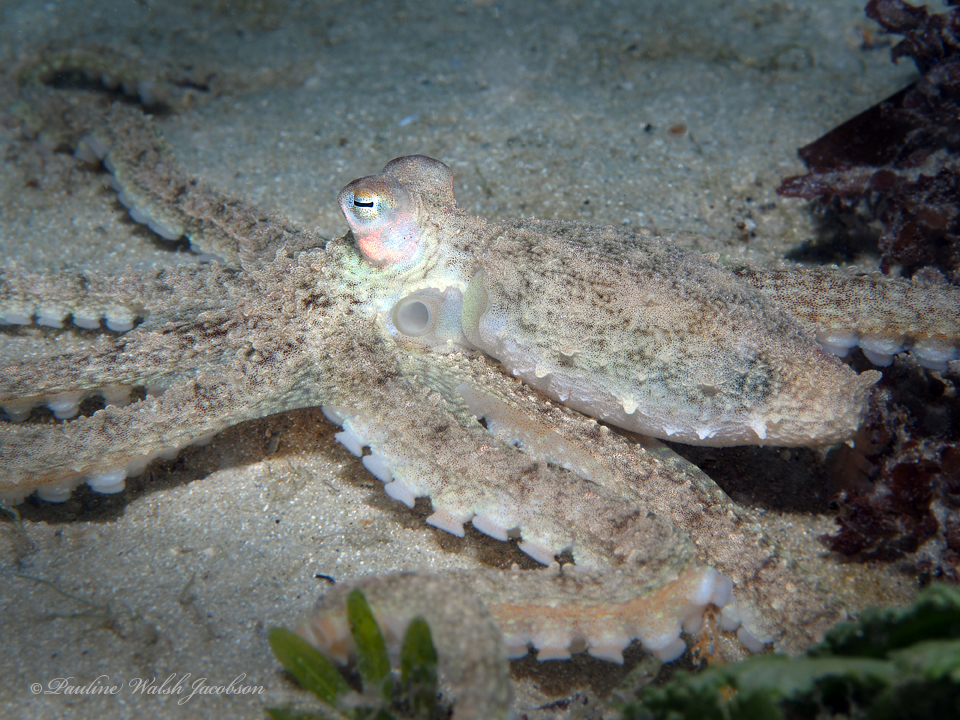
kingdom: Animalia
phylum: Mollusca
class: Cephalopoda
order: Octopoda
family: Octopodidae
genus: Macrotritopus
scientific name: Macrotritopus defilippi
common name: Lilliput longarm octopus
